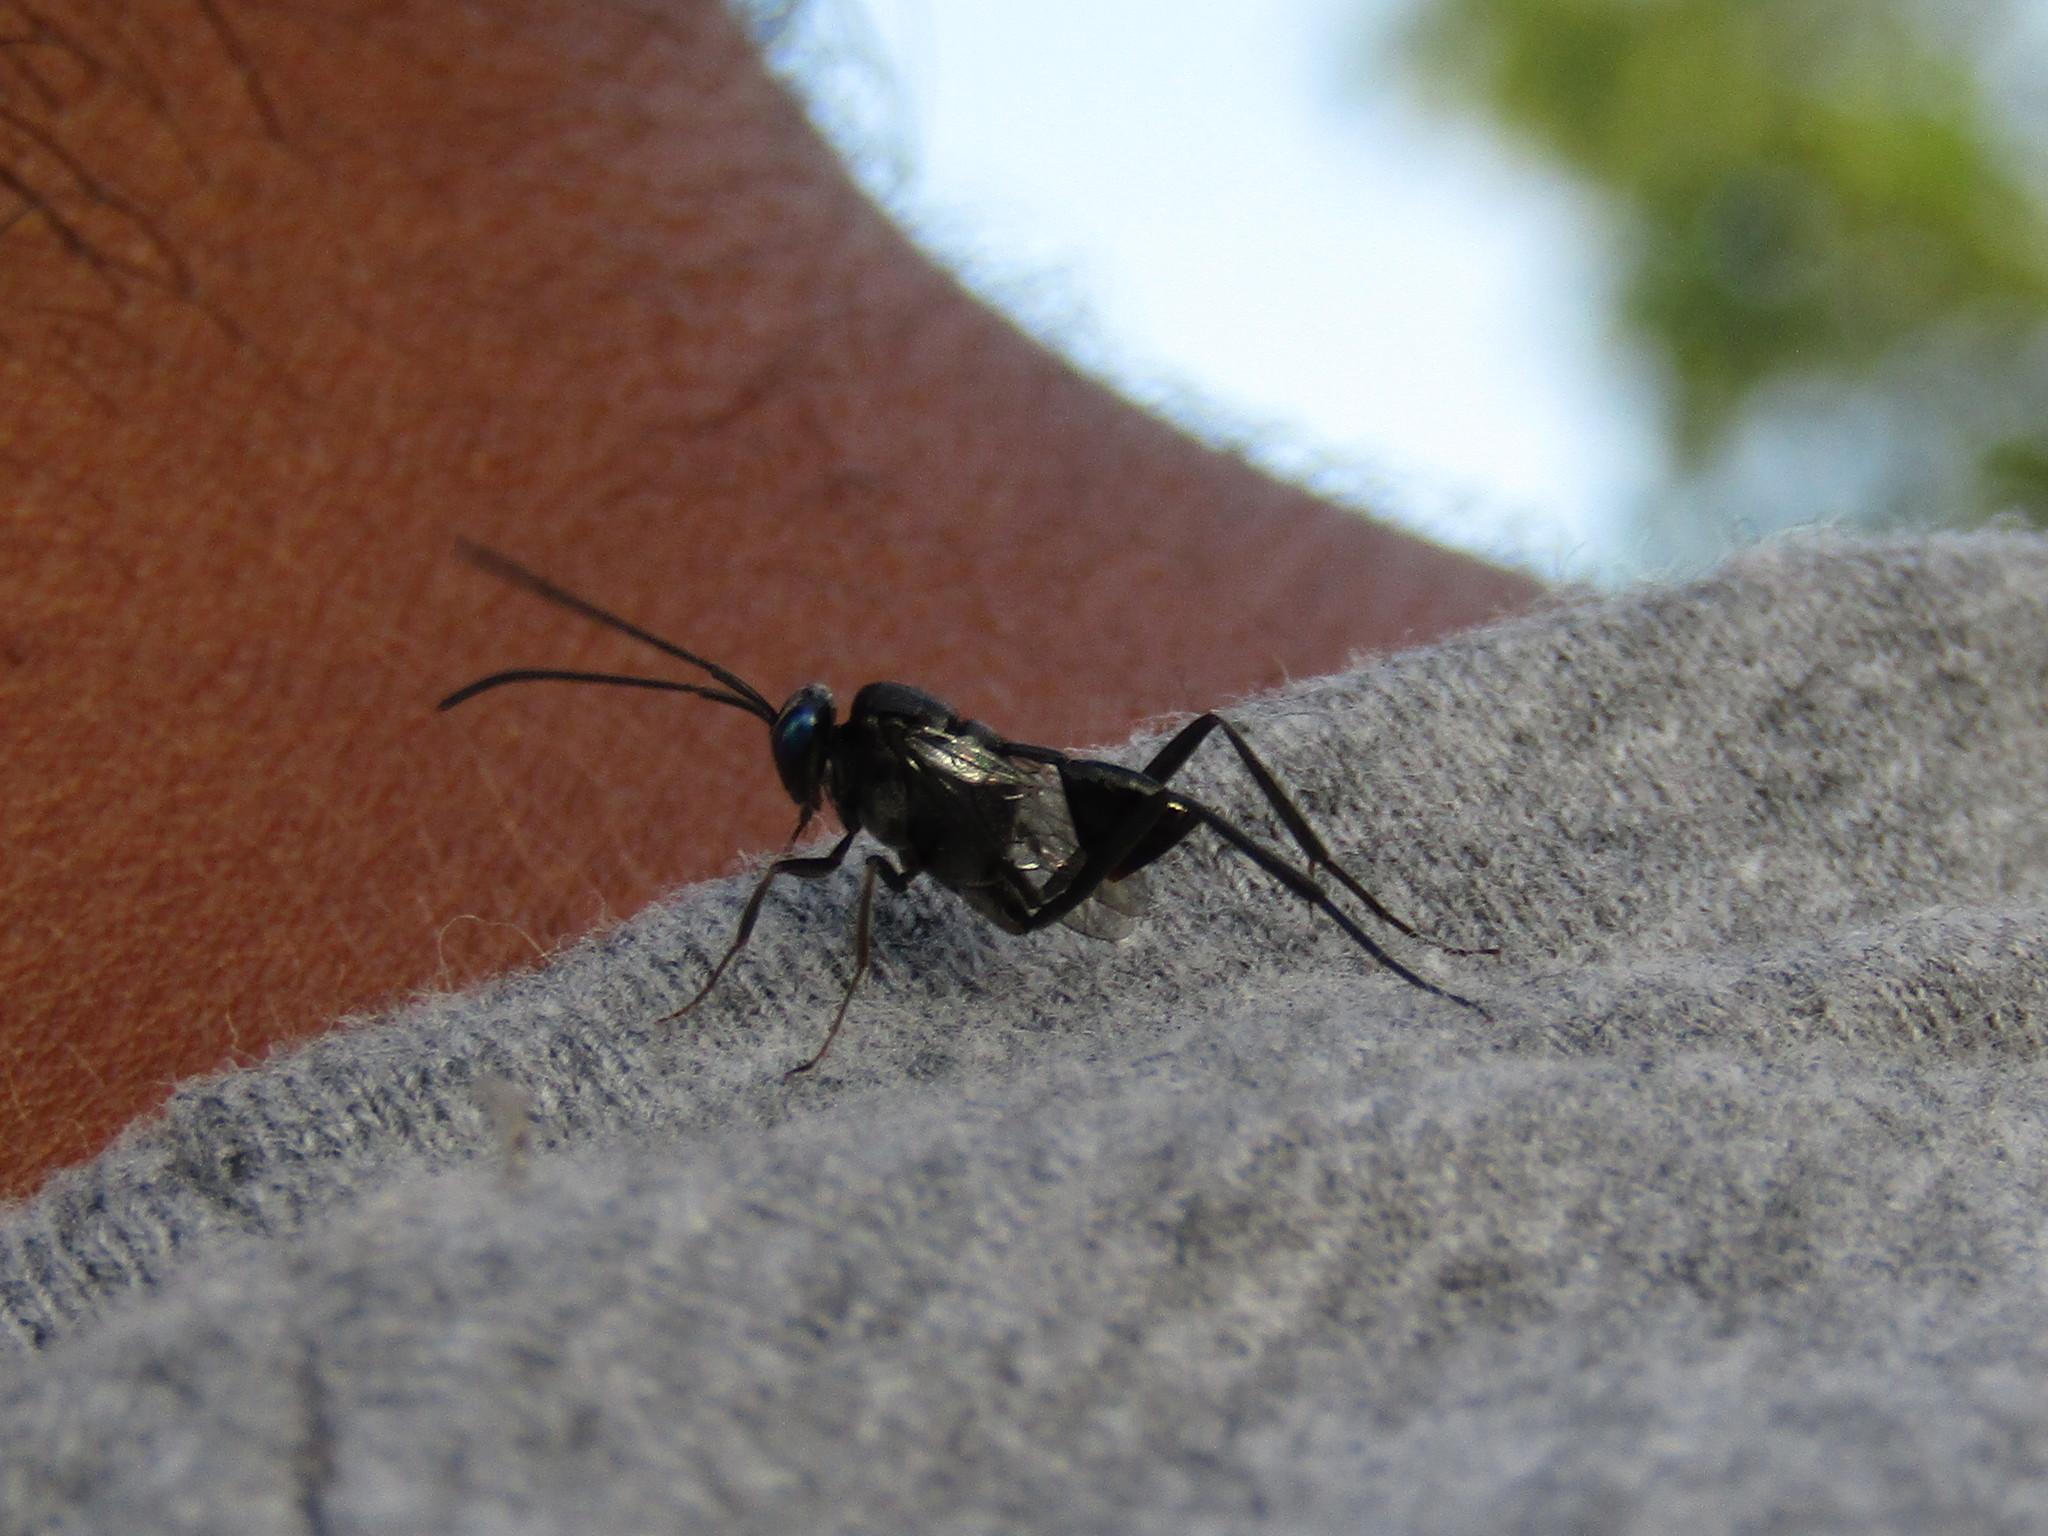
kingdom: Animalia
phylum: Arthropoda
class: Insecta
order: Hymenoptera
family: Evaniidae
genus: Evania
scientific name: Evania appendigaster
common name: Ensign wasp
